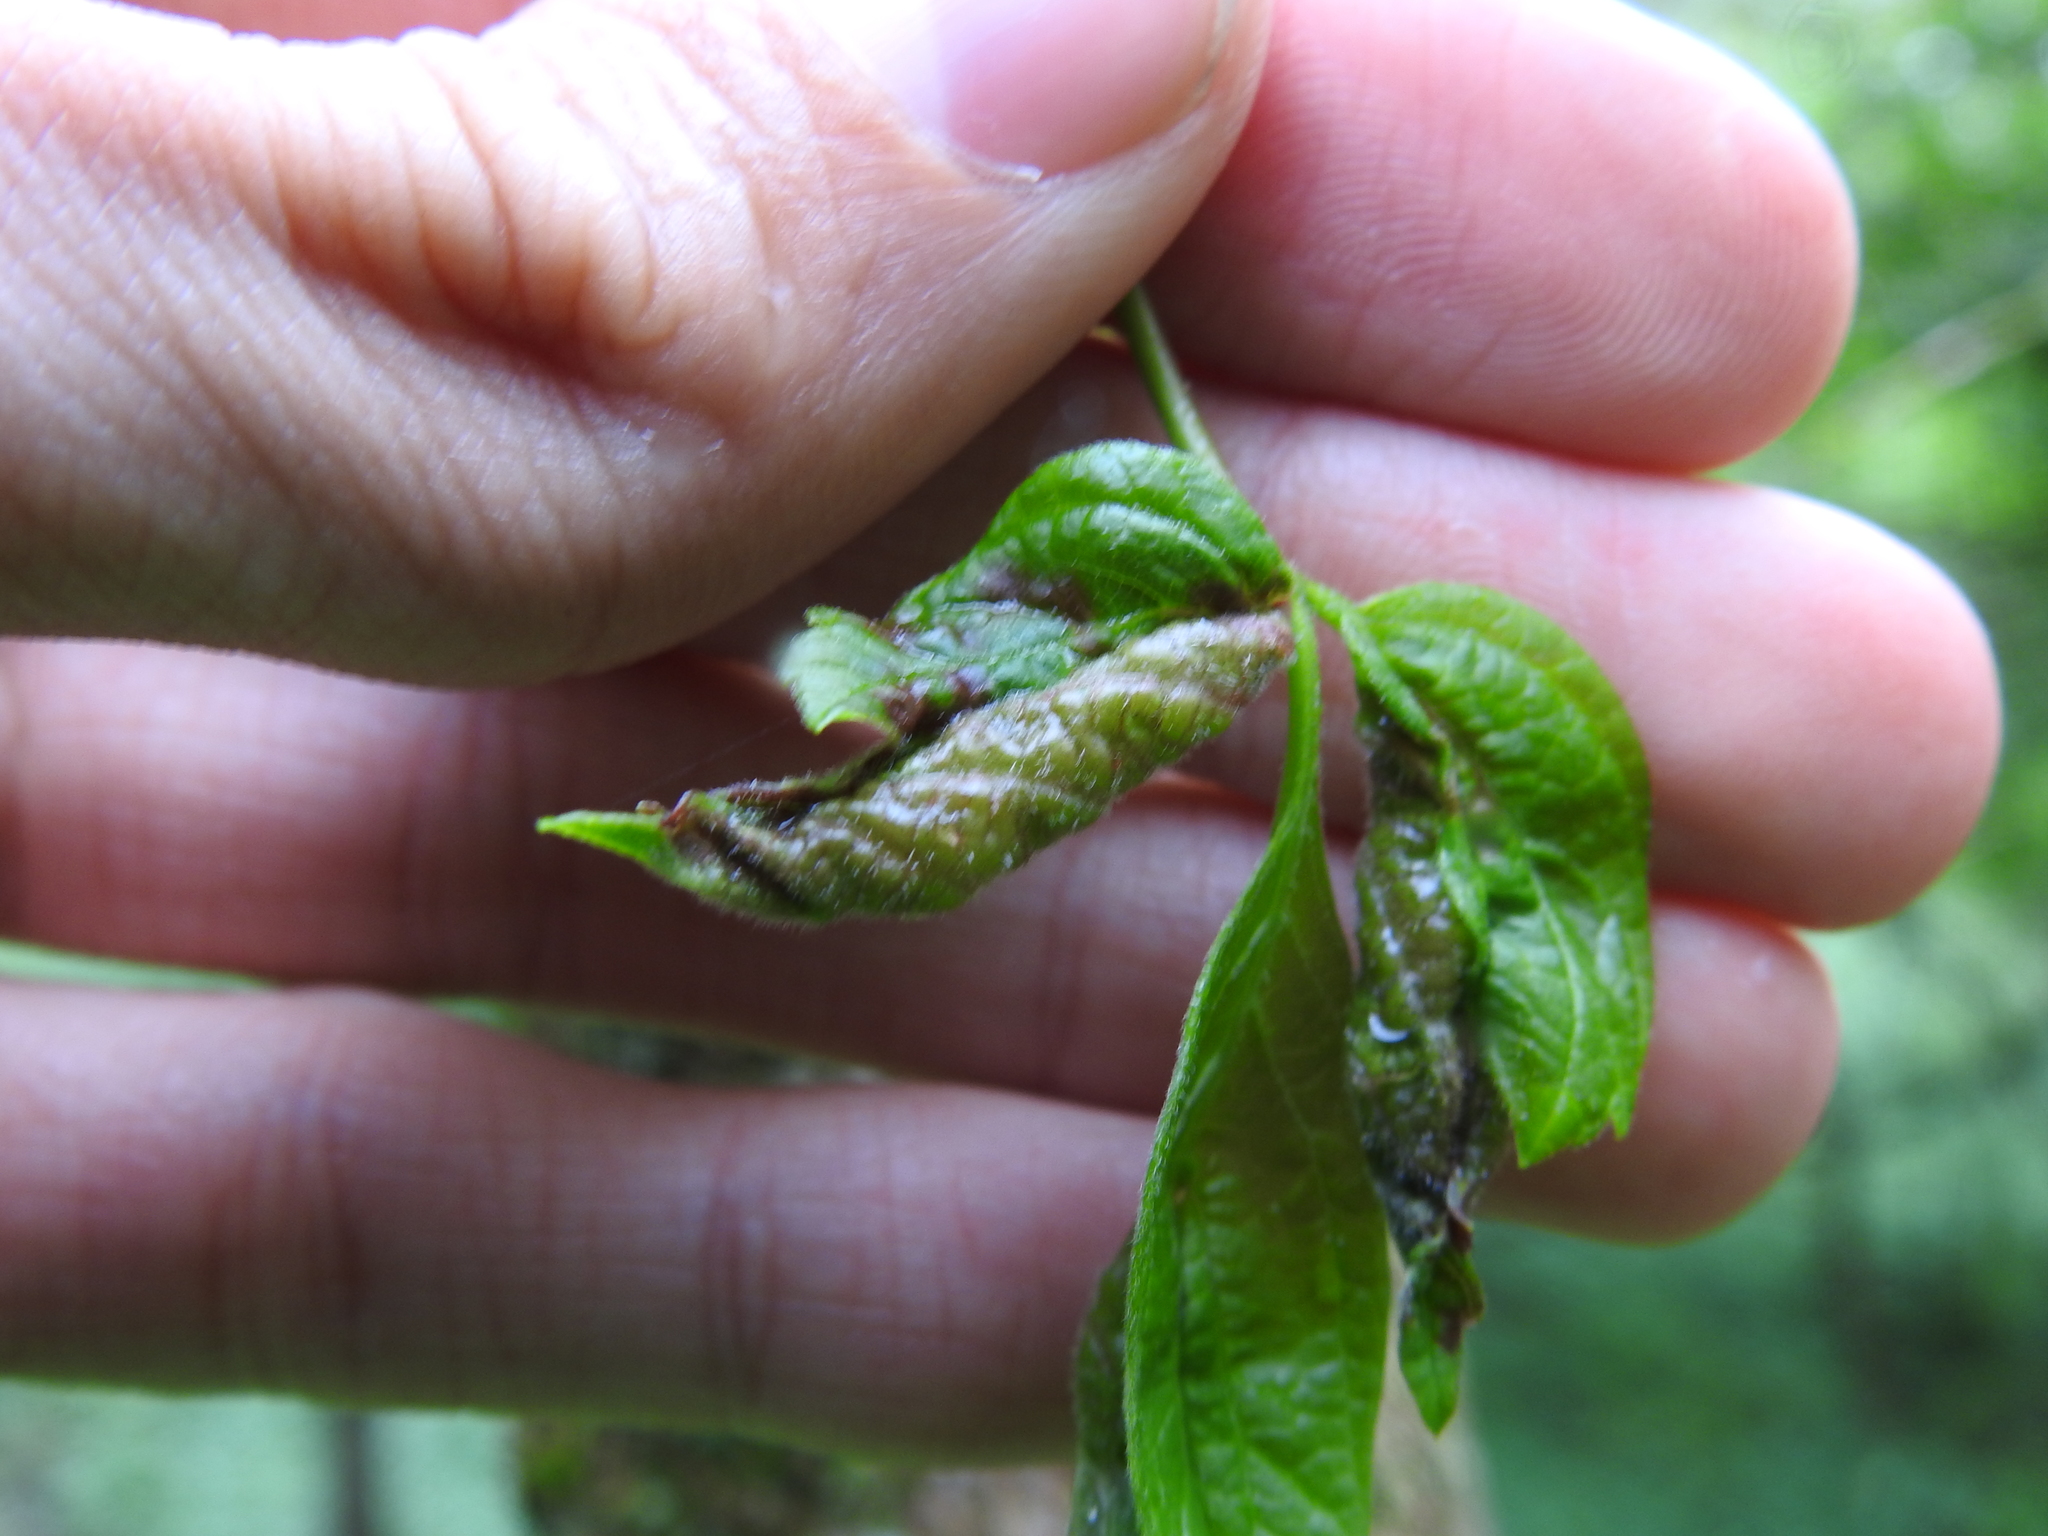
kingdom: Animalia
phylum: Arthropoda
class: Insecta
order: Diptera
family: Cecidomyiidae
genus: Contarinia
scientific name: Contarinia negundinis
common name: Boxelder budgall midge
